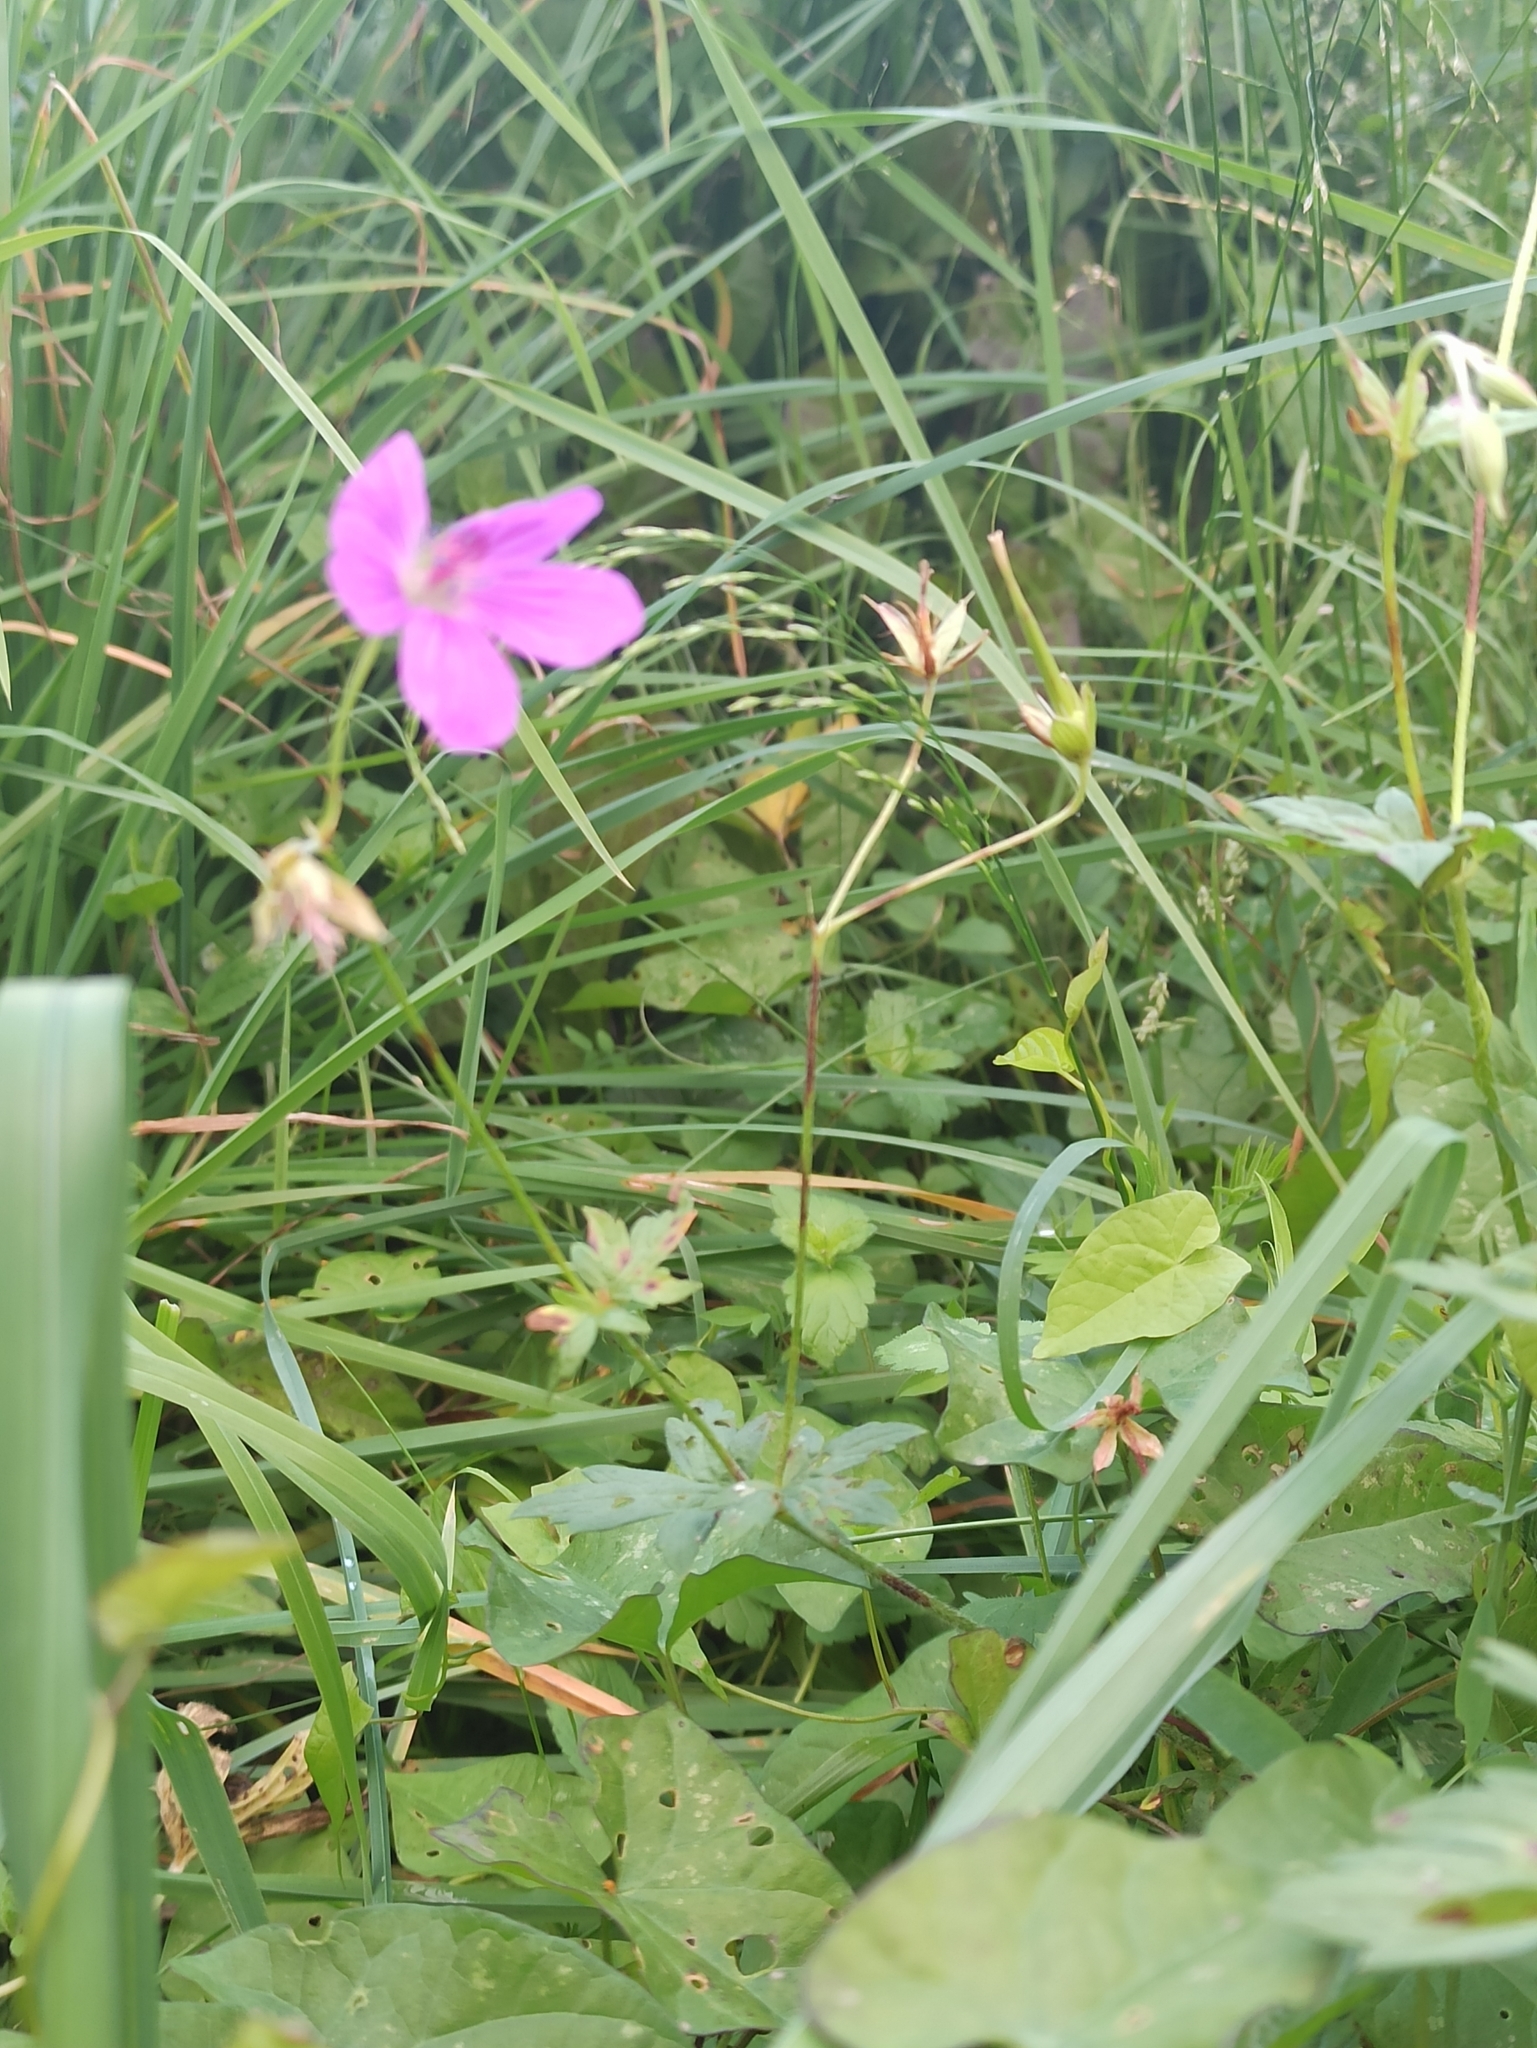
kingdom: Plantae
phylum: Tracheophyta
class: Magnoliopsida
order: Geraniales
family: Geraniaceae
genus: Geranium
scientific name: Geranium palustre
